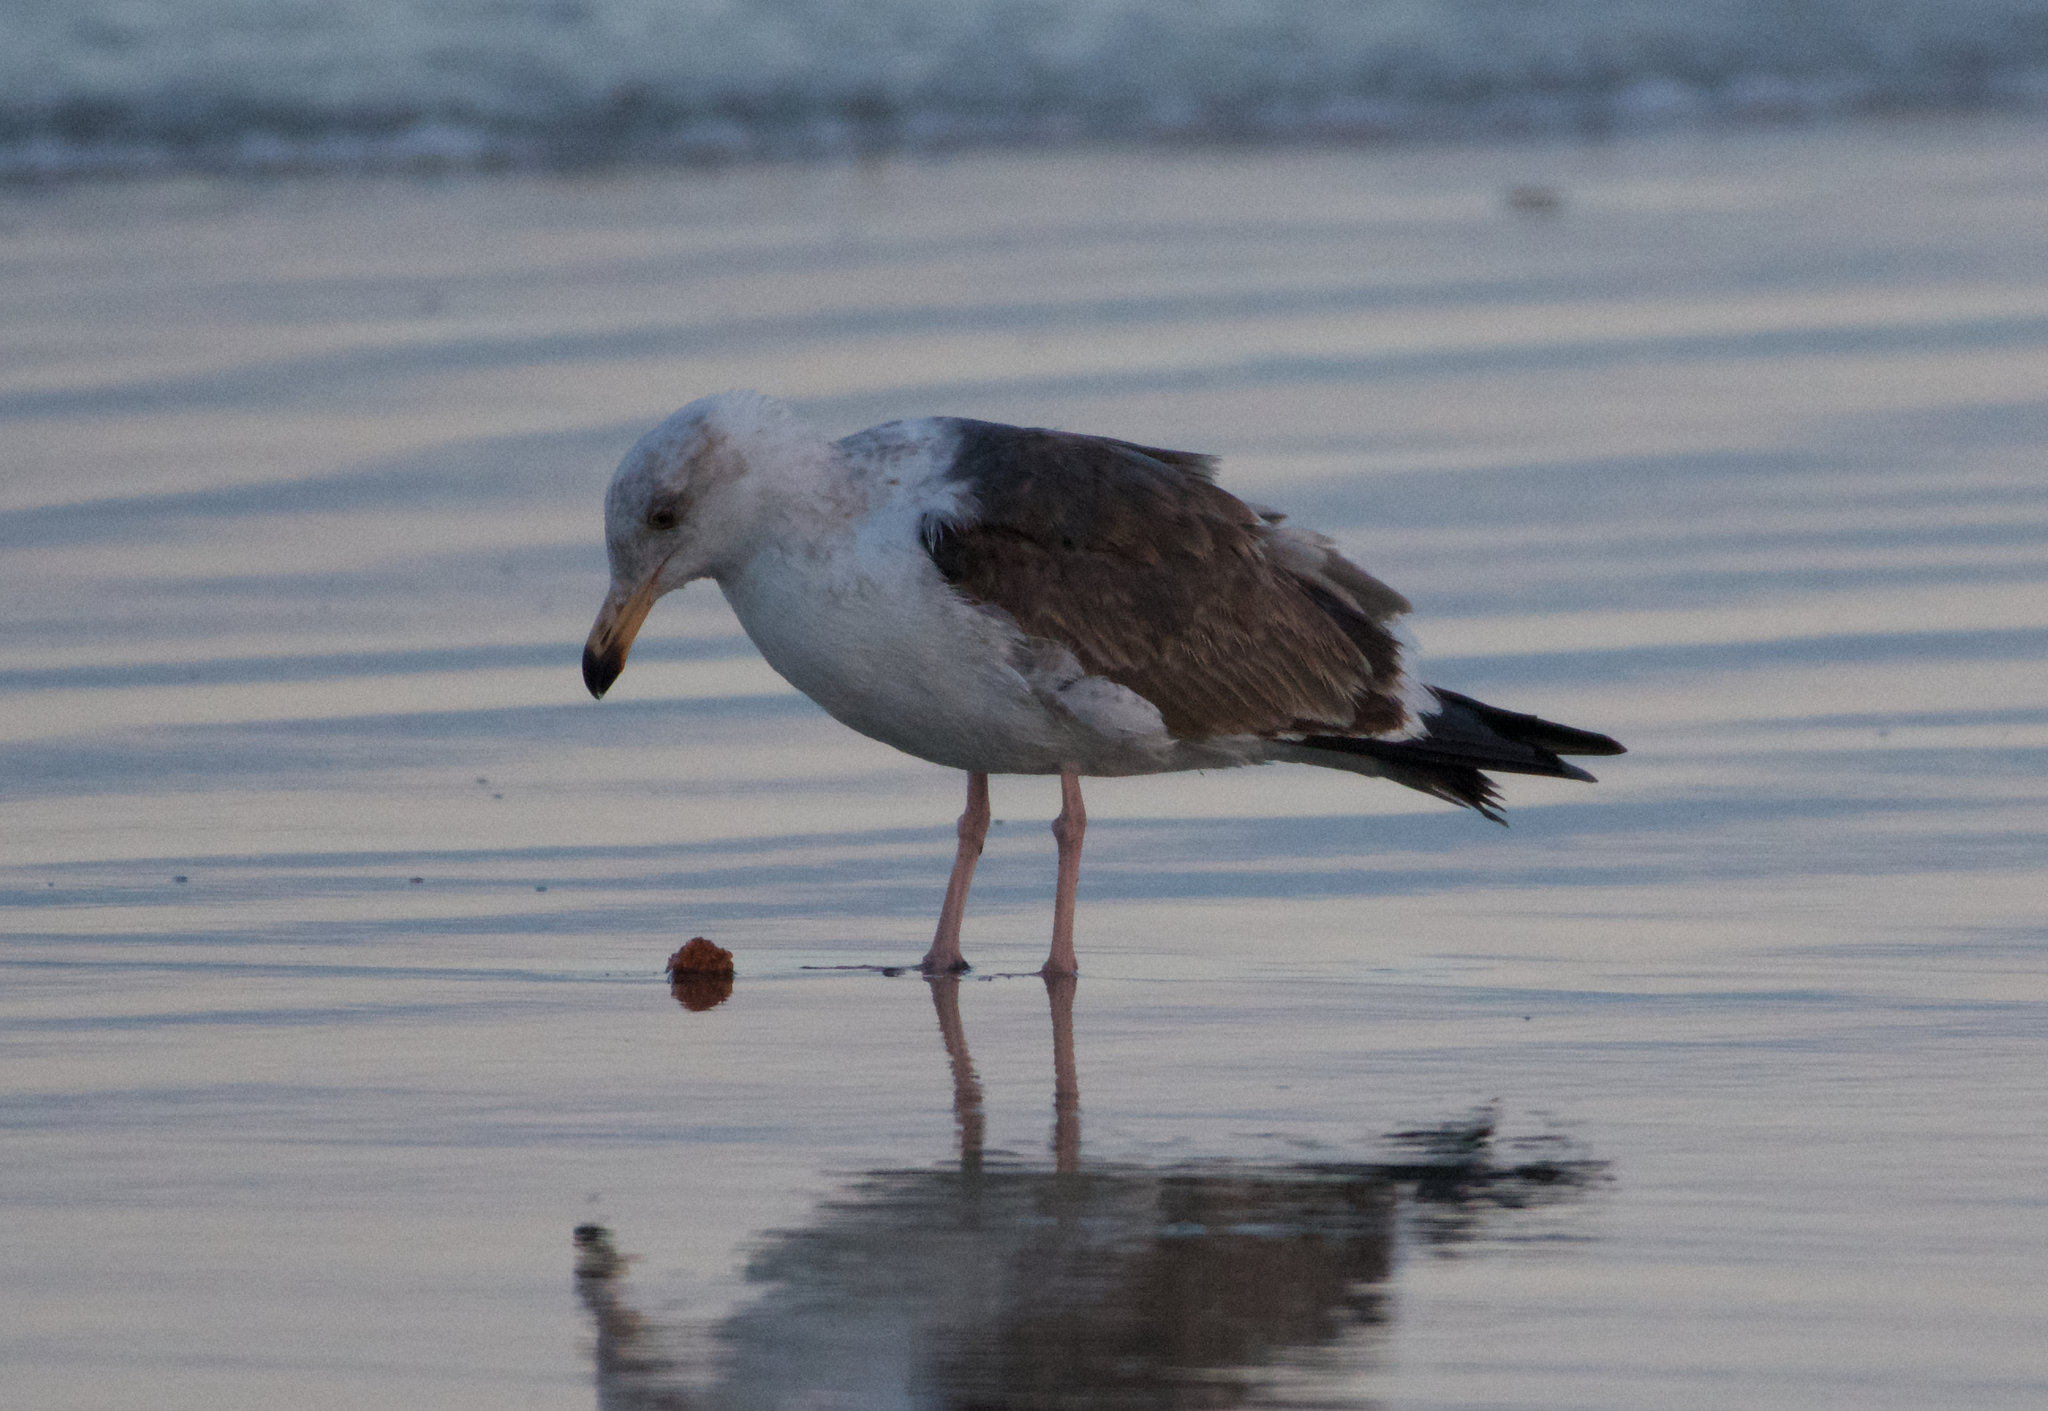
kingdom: Animalia
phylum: Chordata
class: Aves
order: Charadriiformes
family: Laridae
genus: Larus
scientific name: Larus occidentalis
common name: Western gull
